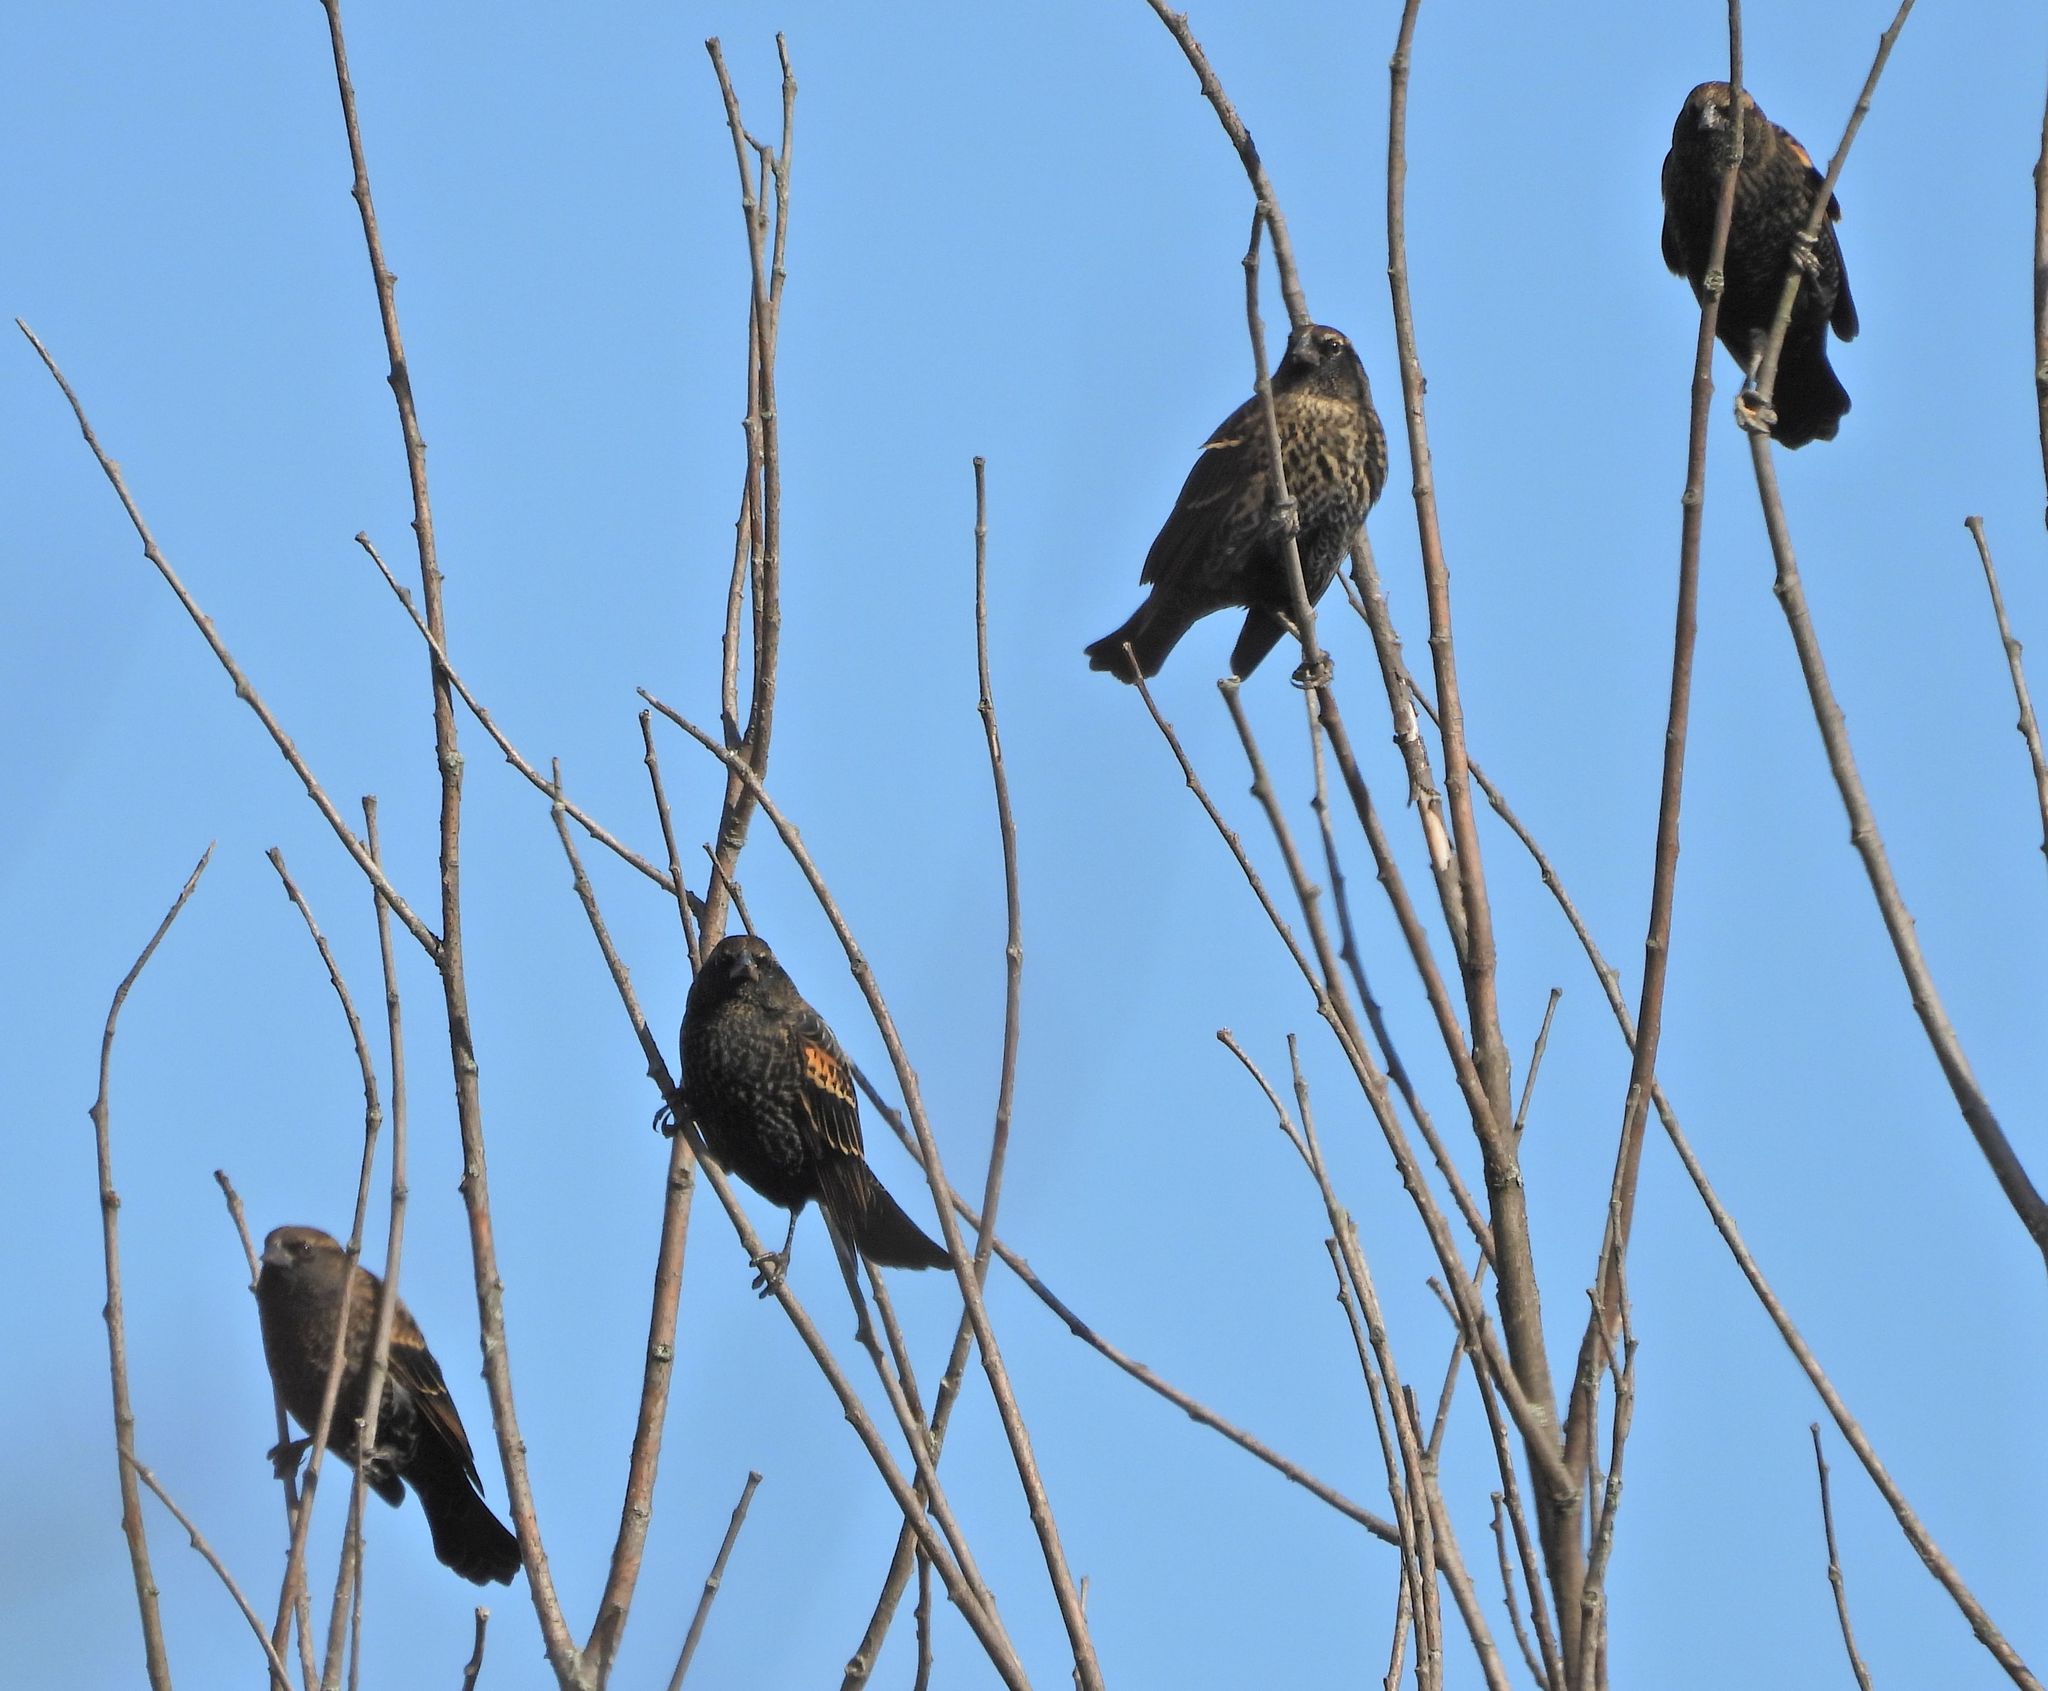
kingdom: Animalia
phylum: Chordata
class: Aves
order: Passeriformes
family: Icteridae
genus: Agelaius
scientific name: Agelaius phoeniceus
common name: Red-winged blackbird
